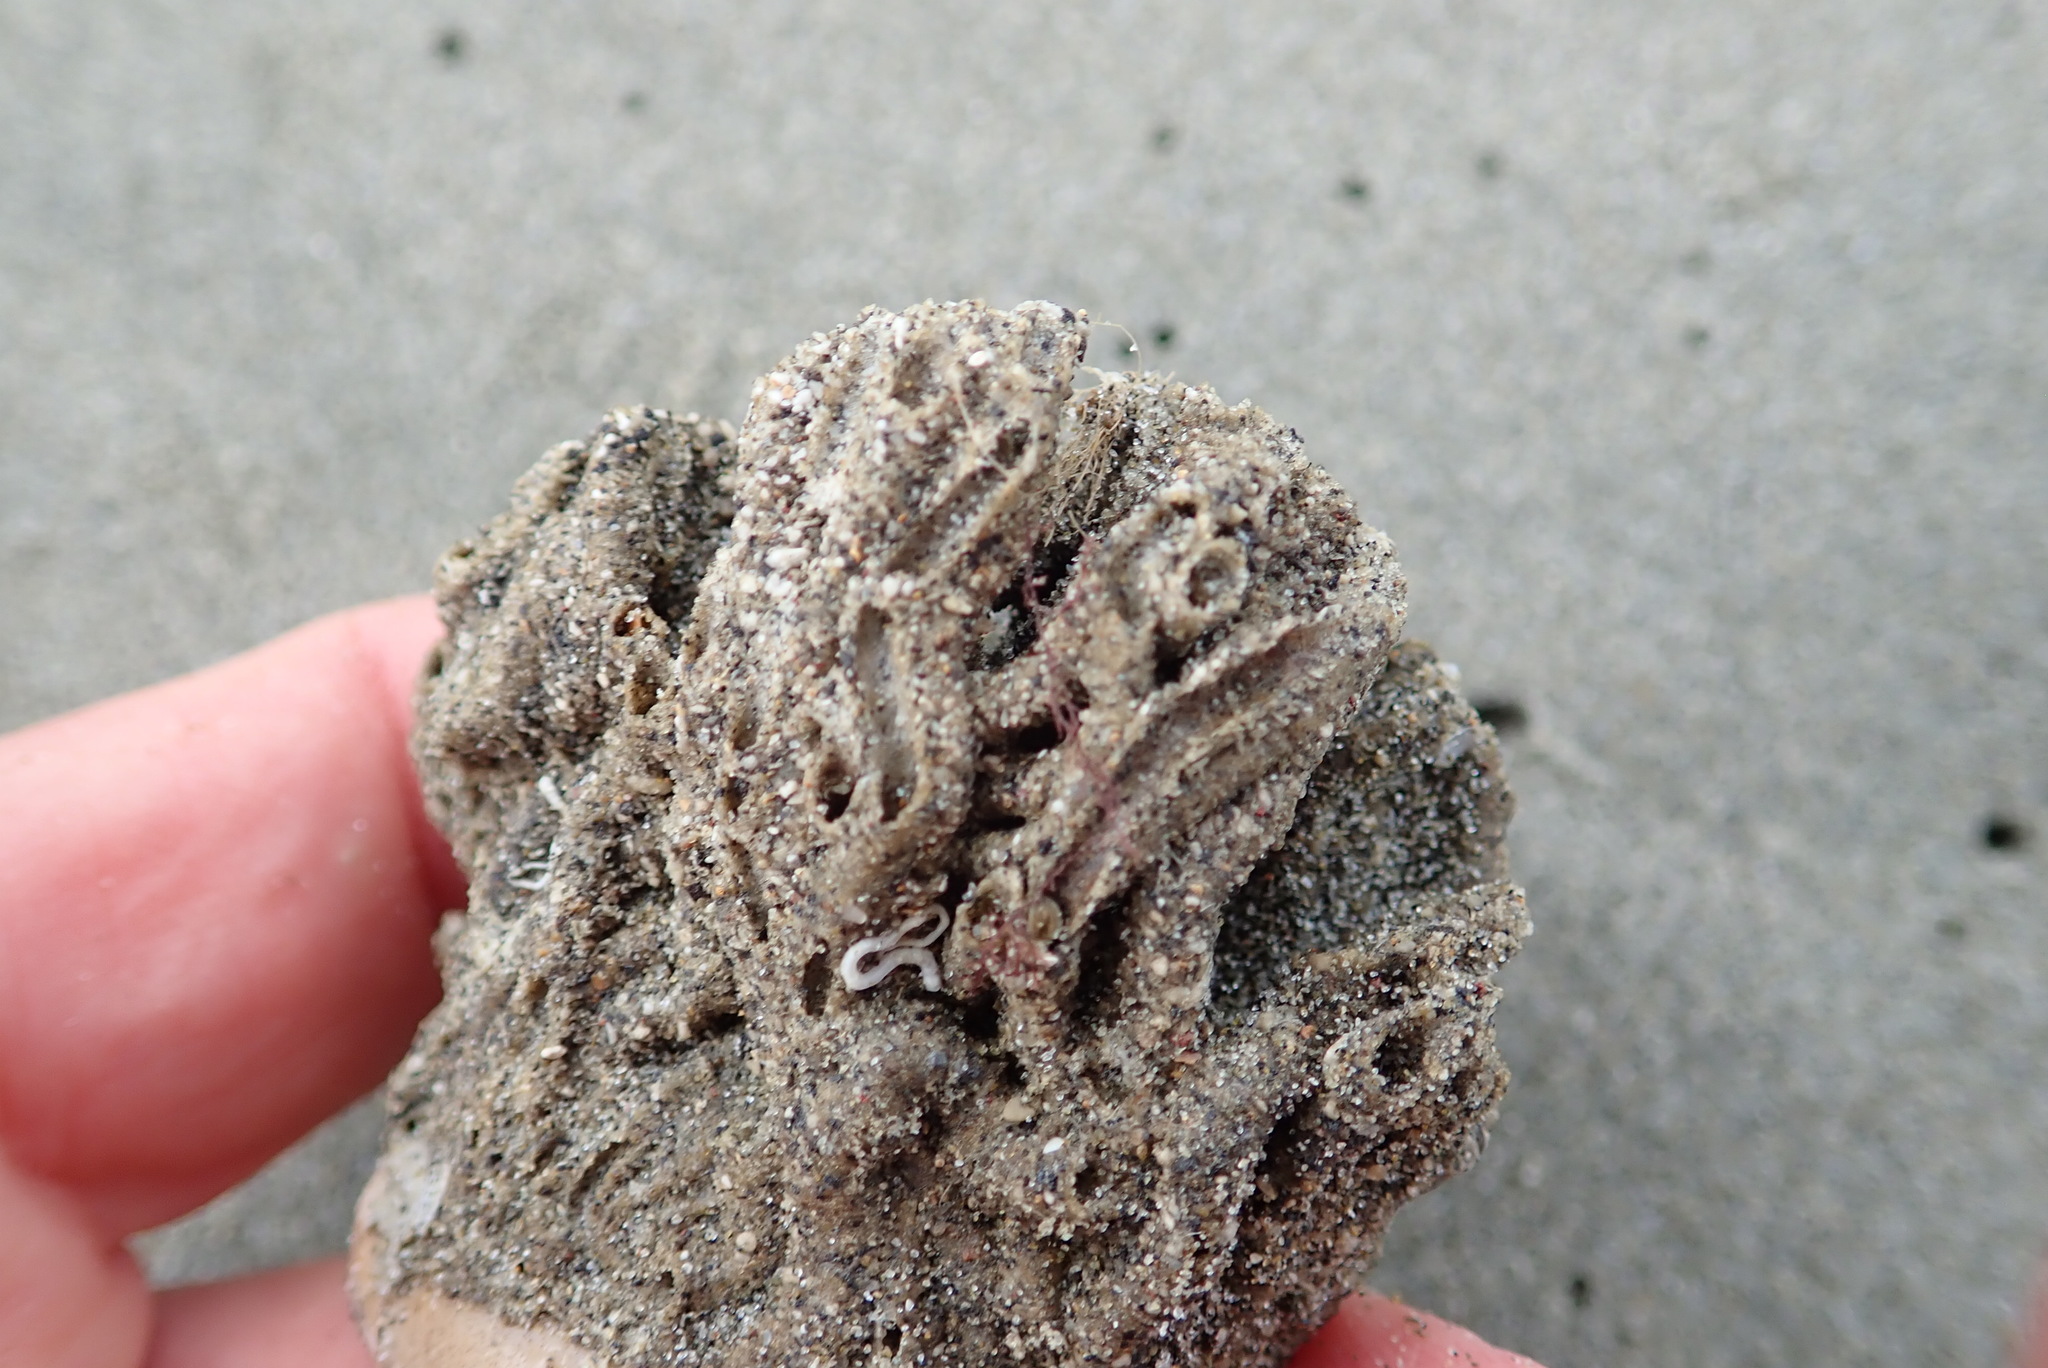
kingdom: Animalia
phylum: Annelida
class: Polychaeta
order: Sabellida
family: Sabellariidae
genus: Neosabellaria
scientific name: Neosabellaria kaiparaensis
